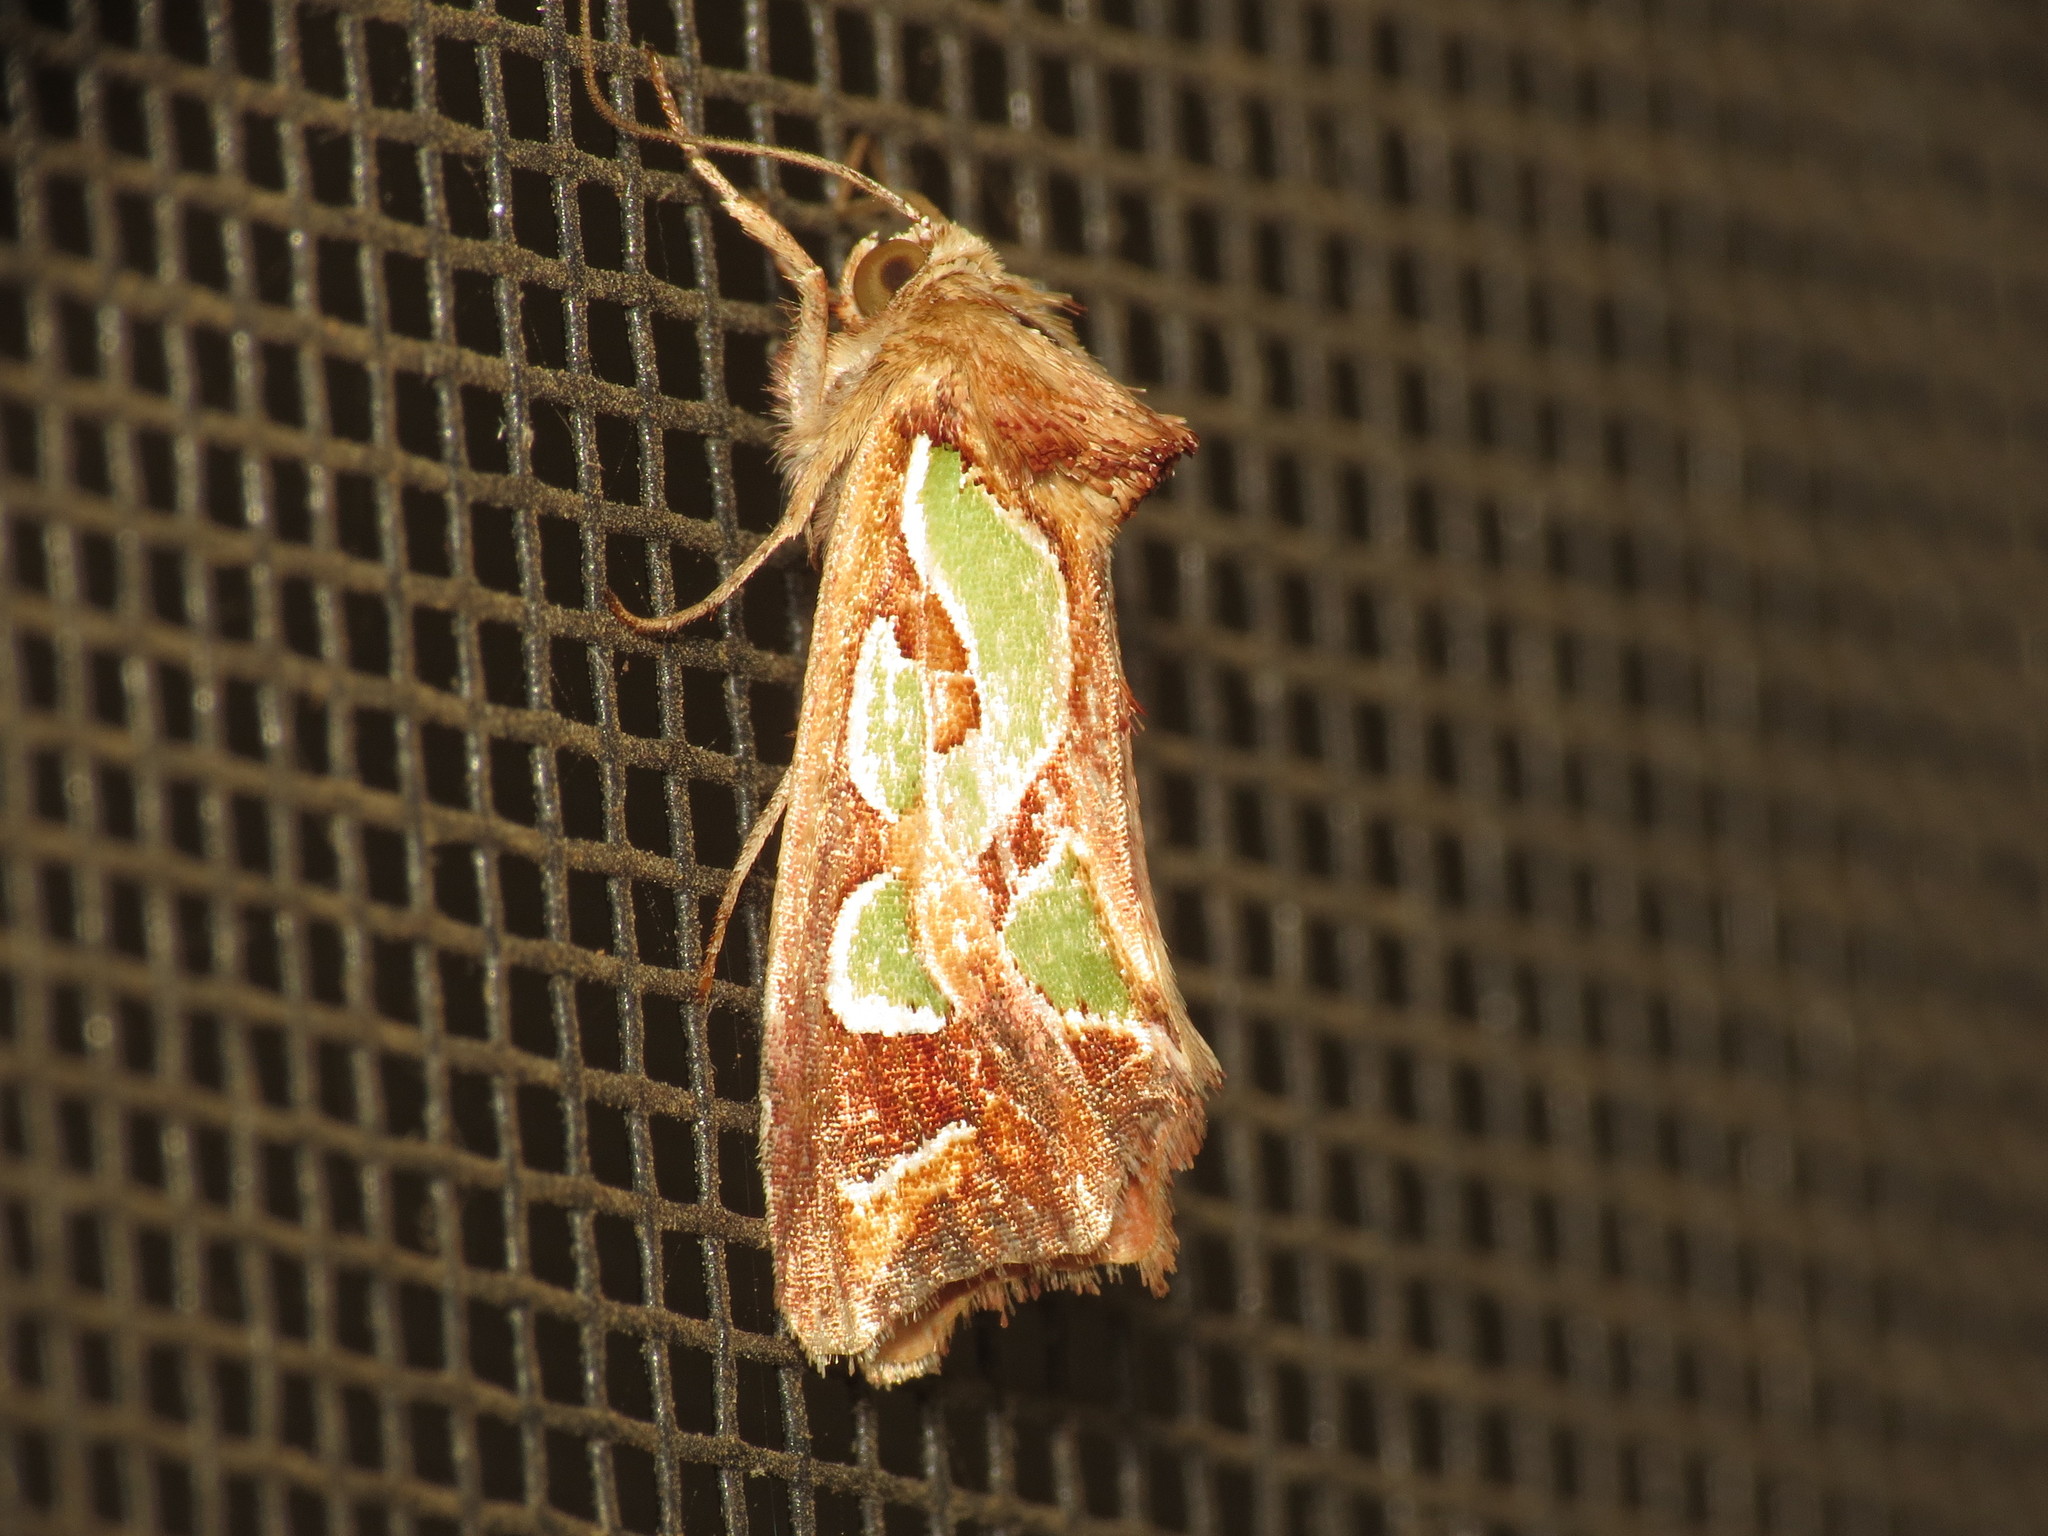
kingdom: Animalia
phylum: Arthropoda
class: Insecta
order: Lepidoptera
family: Noctuidae
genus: Cosmodes
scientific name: Cosmodes elegans
